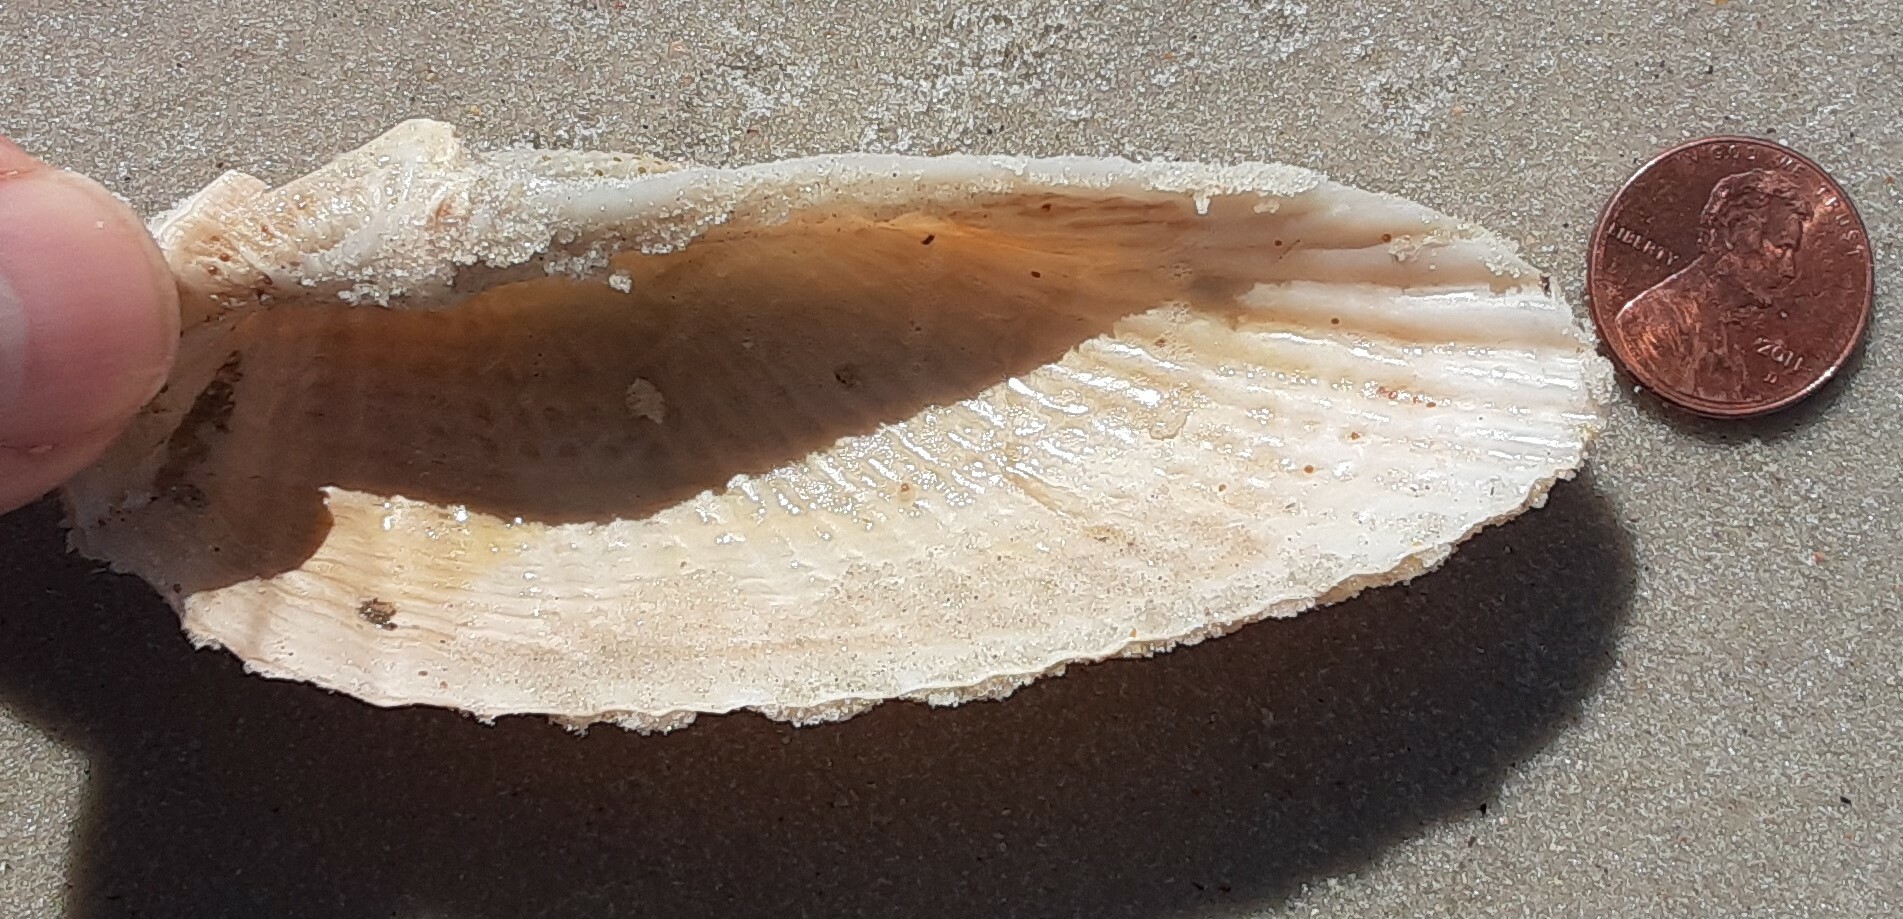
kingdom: Animalia
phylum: Mollusca
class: Bivalvia
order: Myida
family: Pholadidae
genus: Cyrtopleura
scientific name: Cyrtopleura costata
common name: Angel wing
